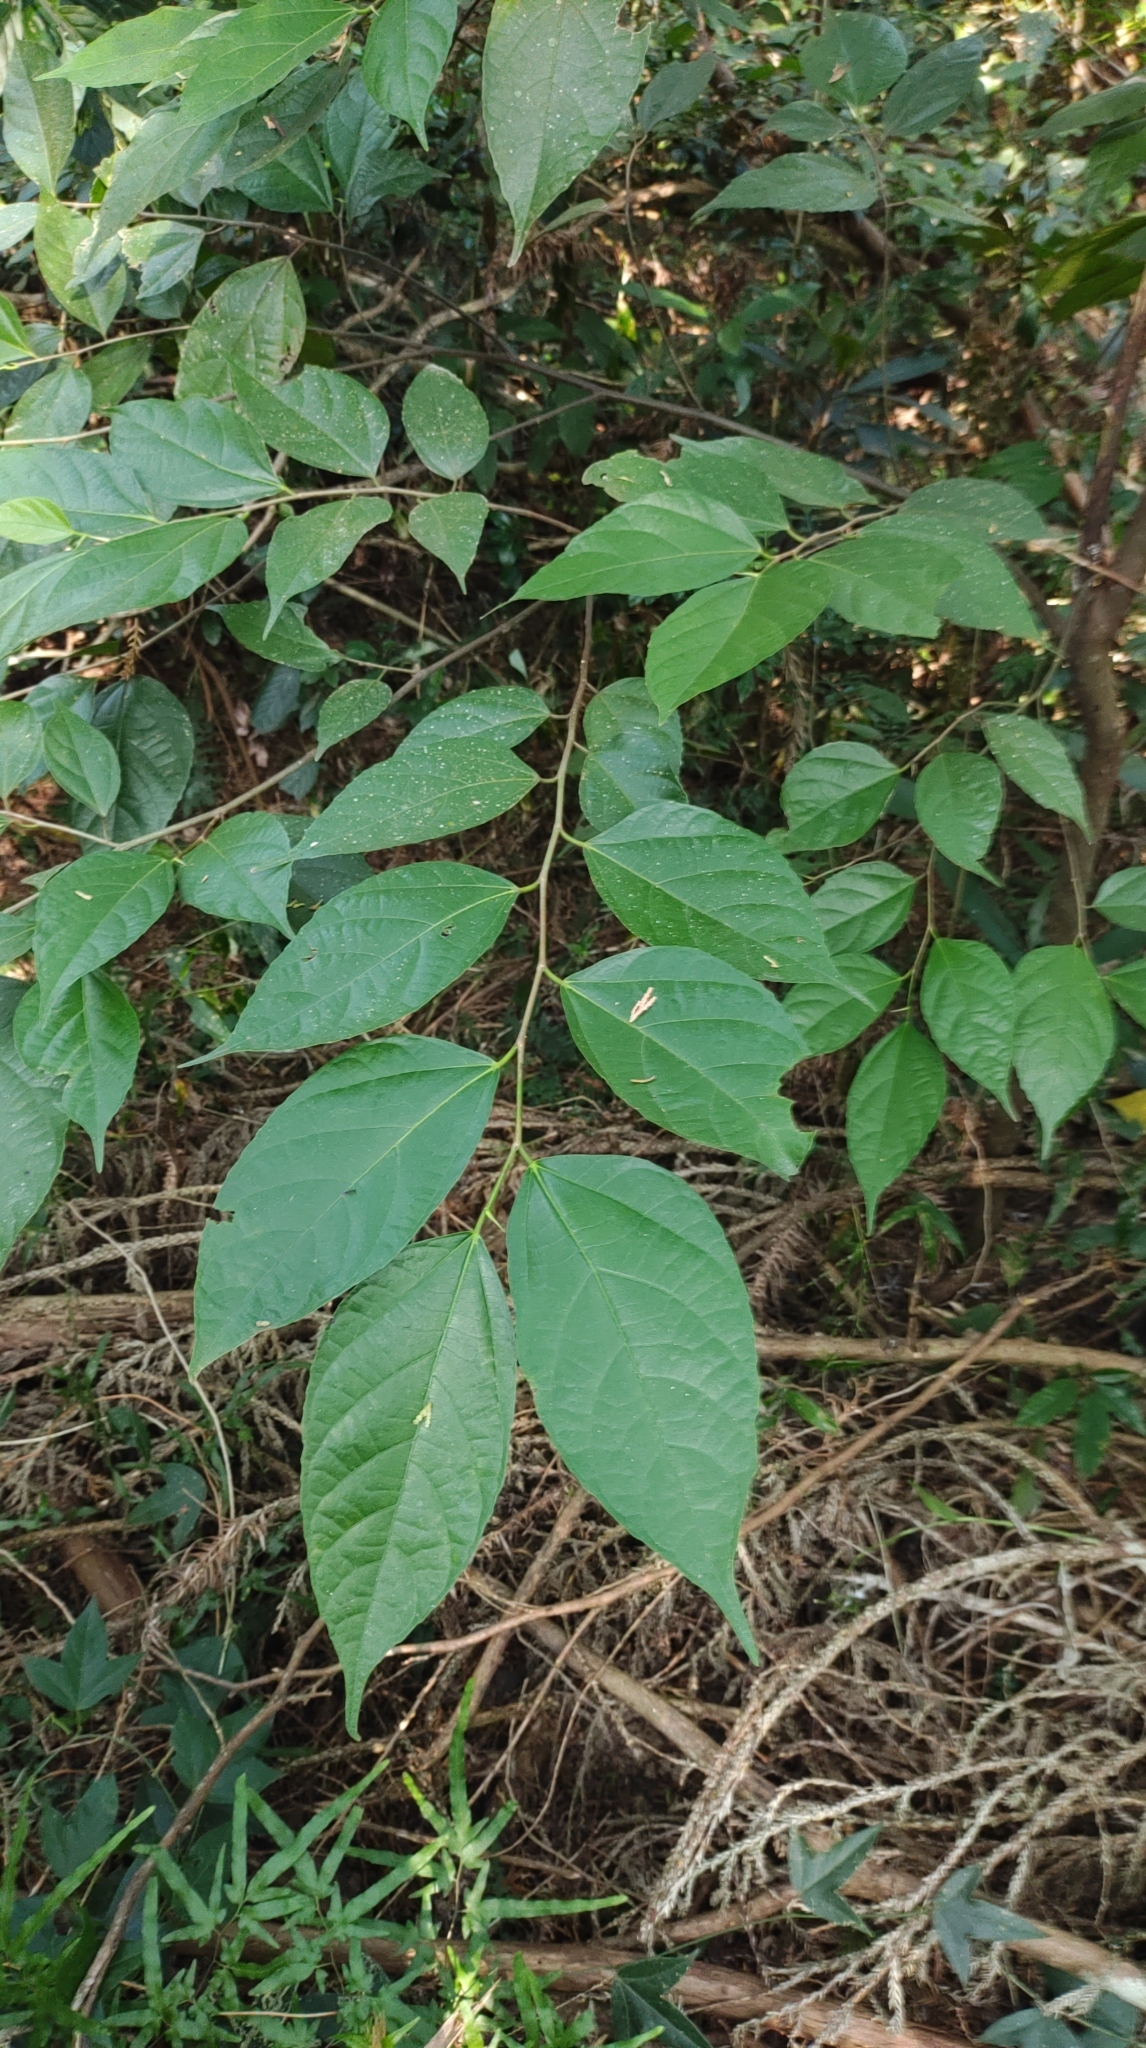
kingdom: Plantae
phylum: Tracheophyta
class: Magnoliopsida
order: Rosales
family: Moraceae
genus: Ficus
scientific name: Ficus ampelos
